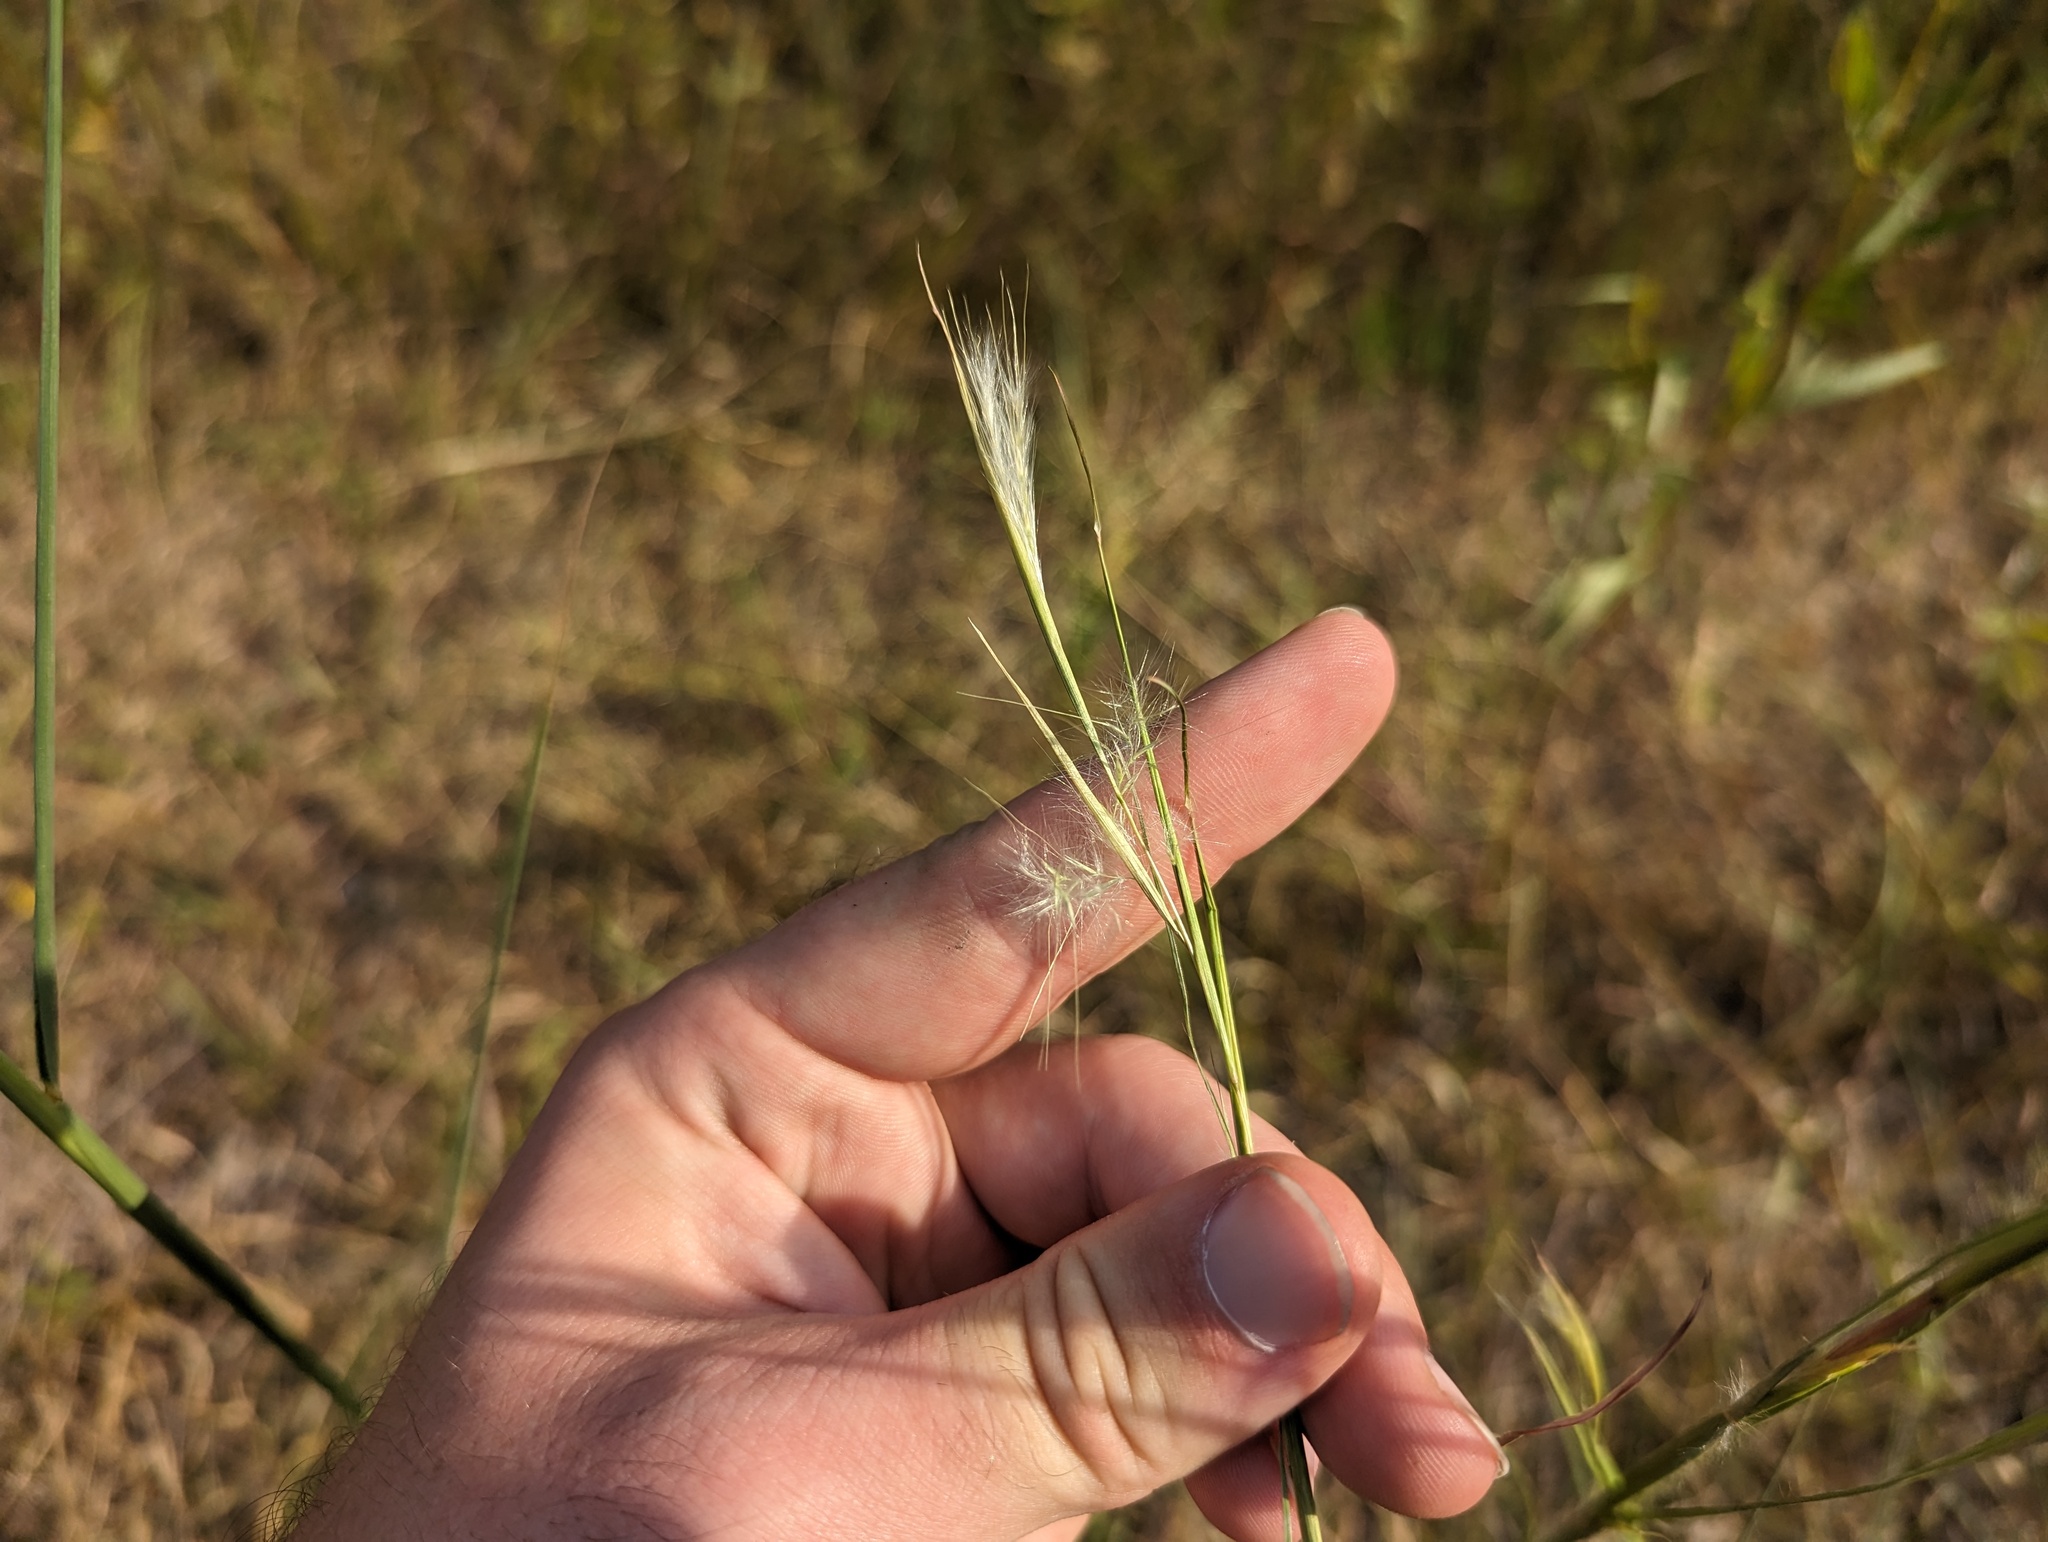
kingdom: Plantae
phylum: Tracheophyta
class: Liliopsida
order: Poales
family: Poaceae
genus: Andropogon
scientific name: Andropogon virginicus
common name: Broomsedge bluestem
